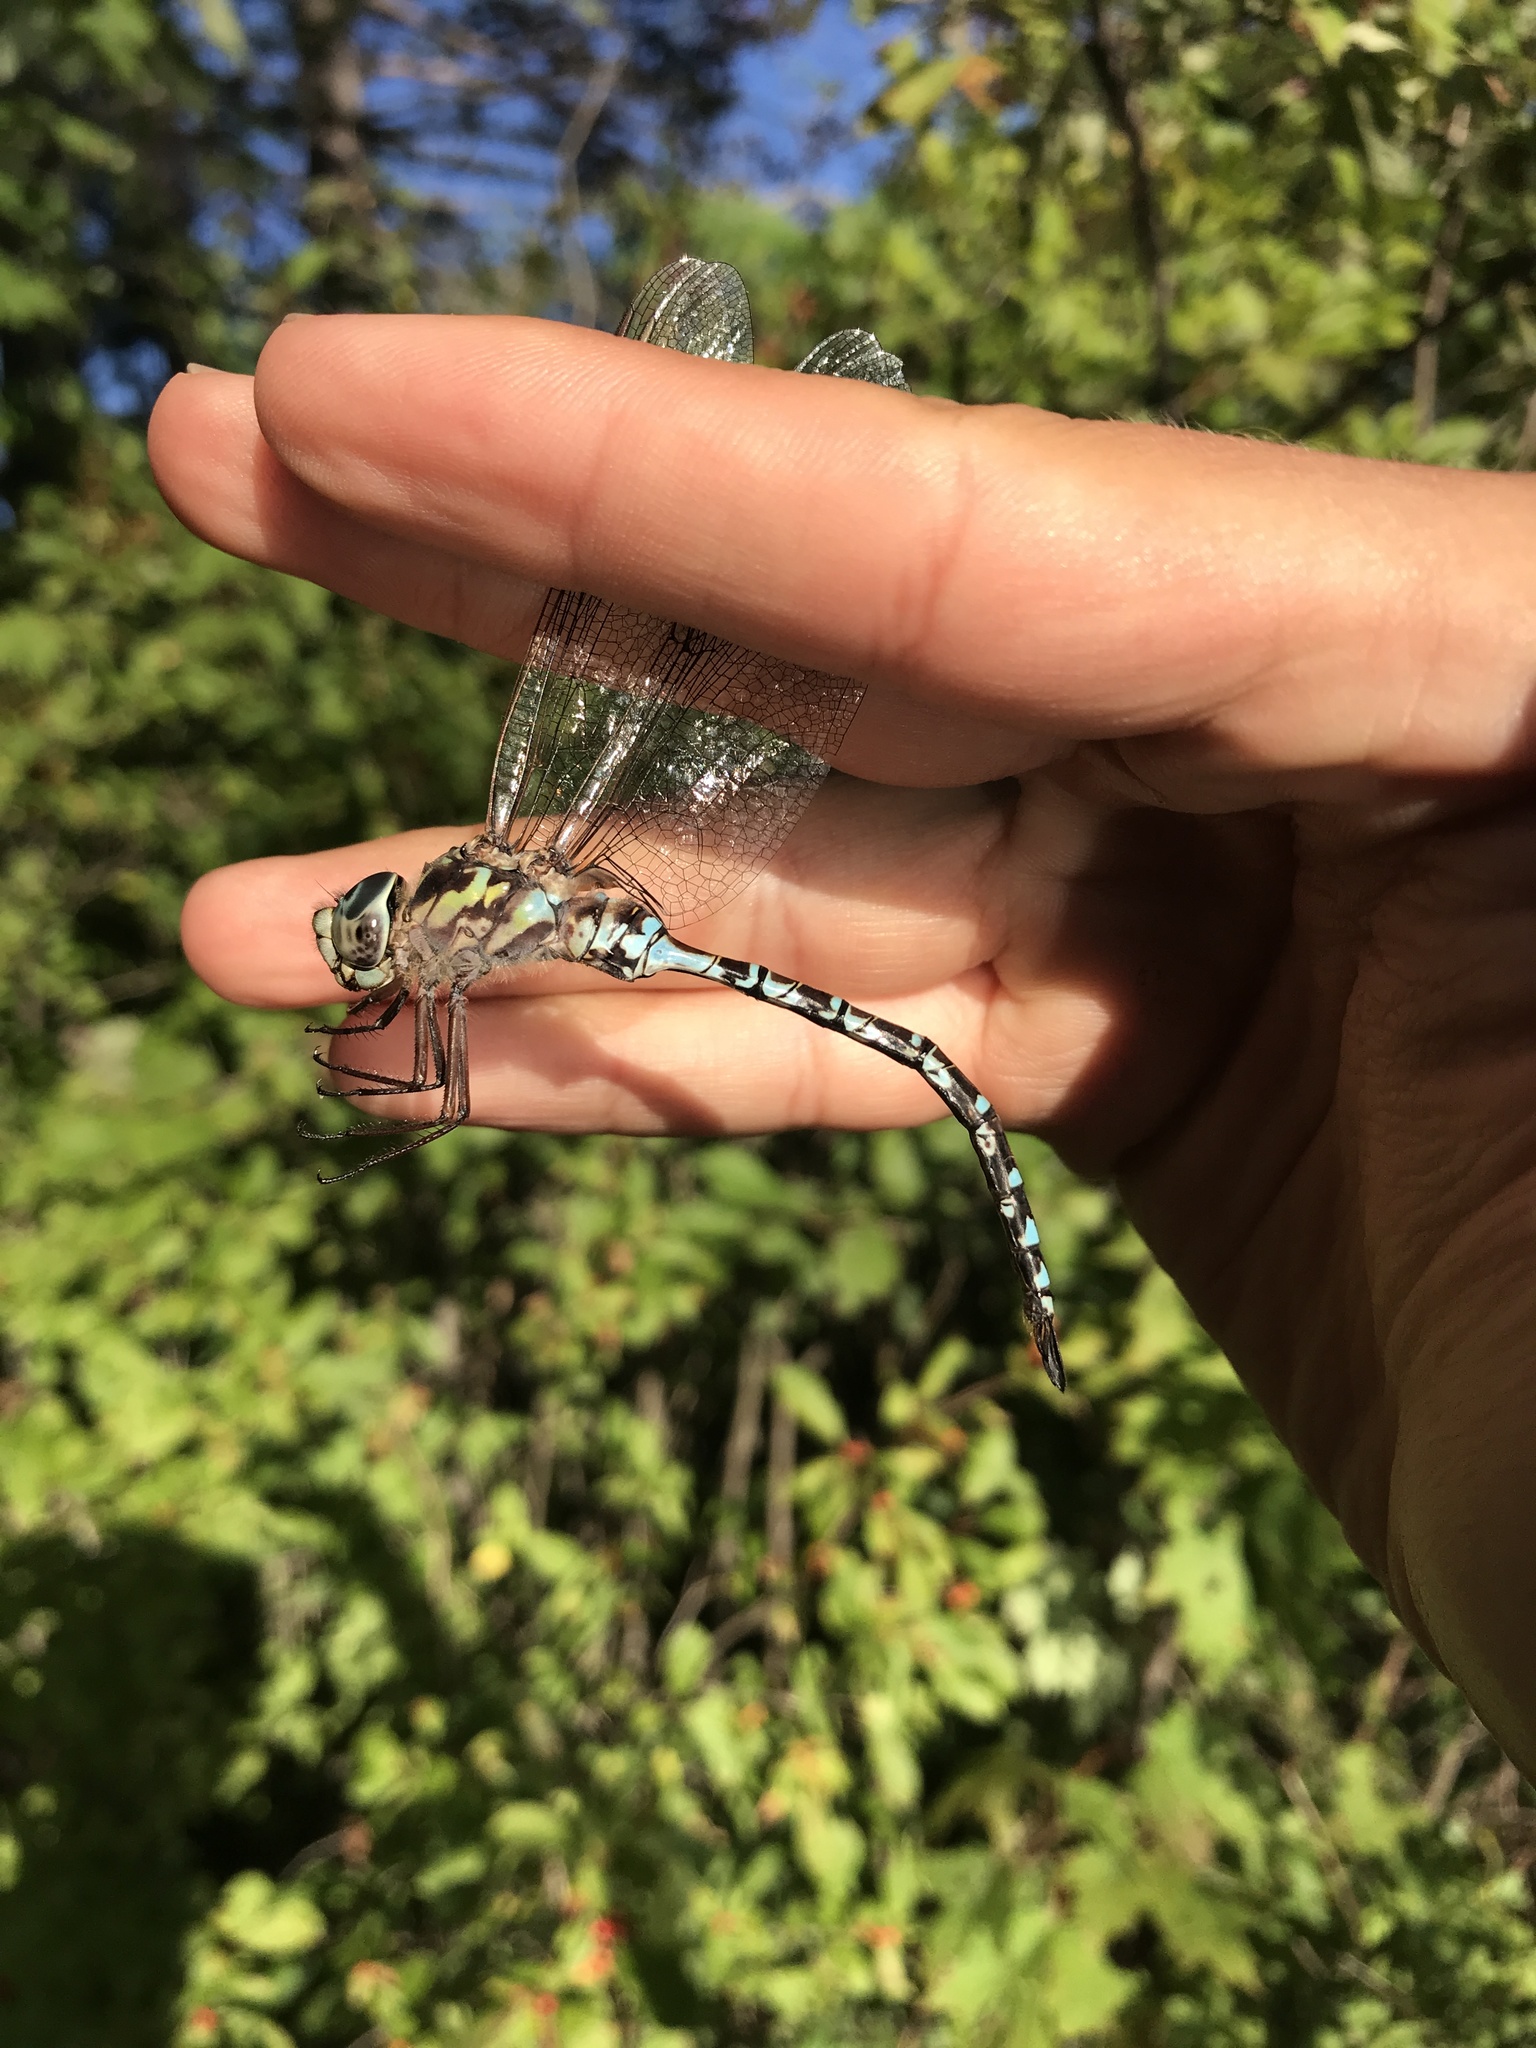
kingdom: Animalia
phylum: Arthropoda
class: Insecta
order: Odonata
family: Aeshnidae
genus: Aeshna
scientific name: Aeshna clepsydra
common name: Mottled darner
